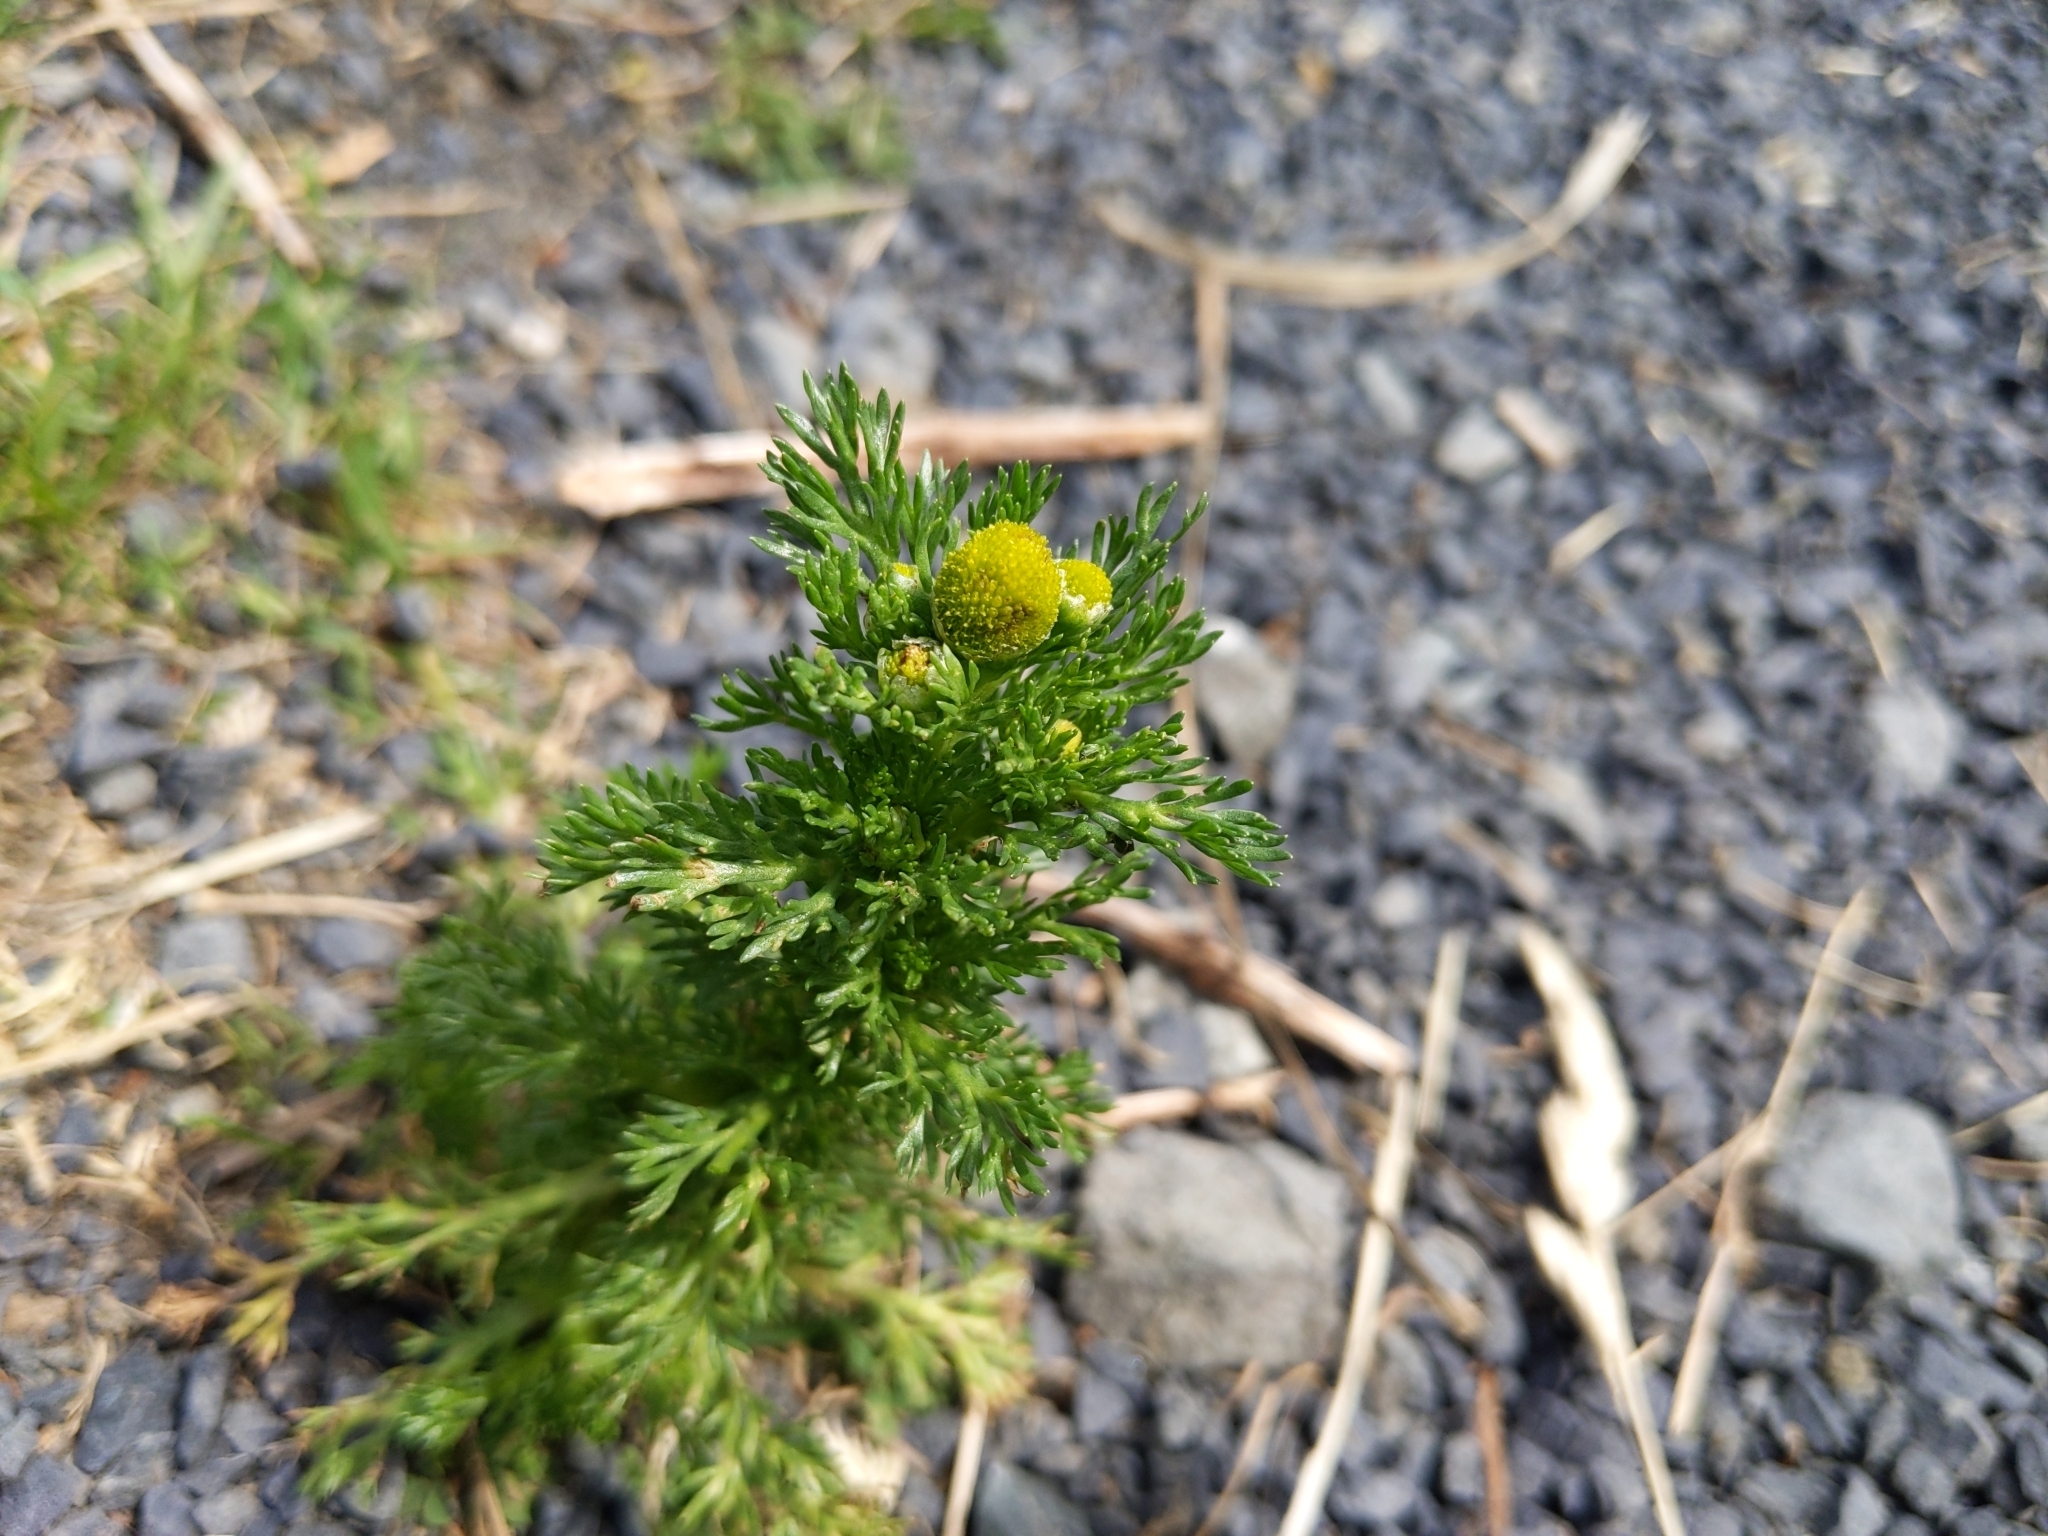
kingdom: Plantae
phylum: Tracheophyta
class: Magnoliopsida
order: Asterales
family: Asteraceae
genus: Matricaria
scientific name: Matricaria discoidea
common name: Disc mayweed
